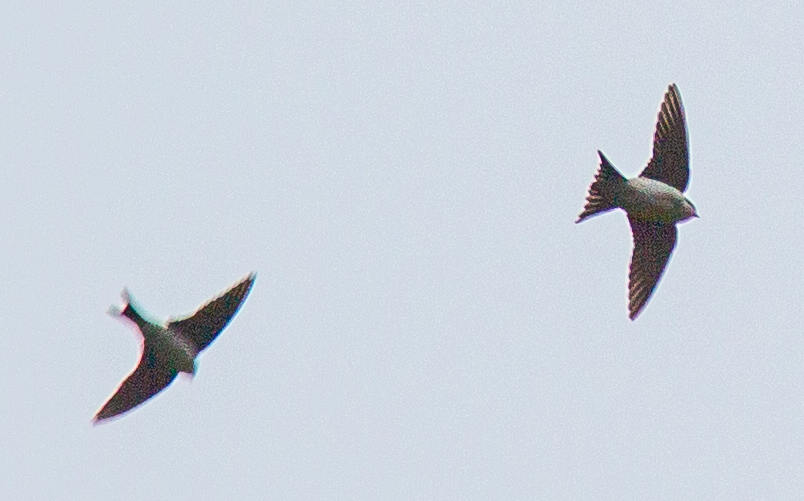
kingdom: Animalia
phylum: Chordata
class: Aves
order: Passeriformes
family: Hirundinidae
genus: Delichon
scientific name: Delichon urbicum
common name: Common house martin
